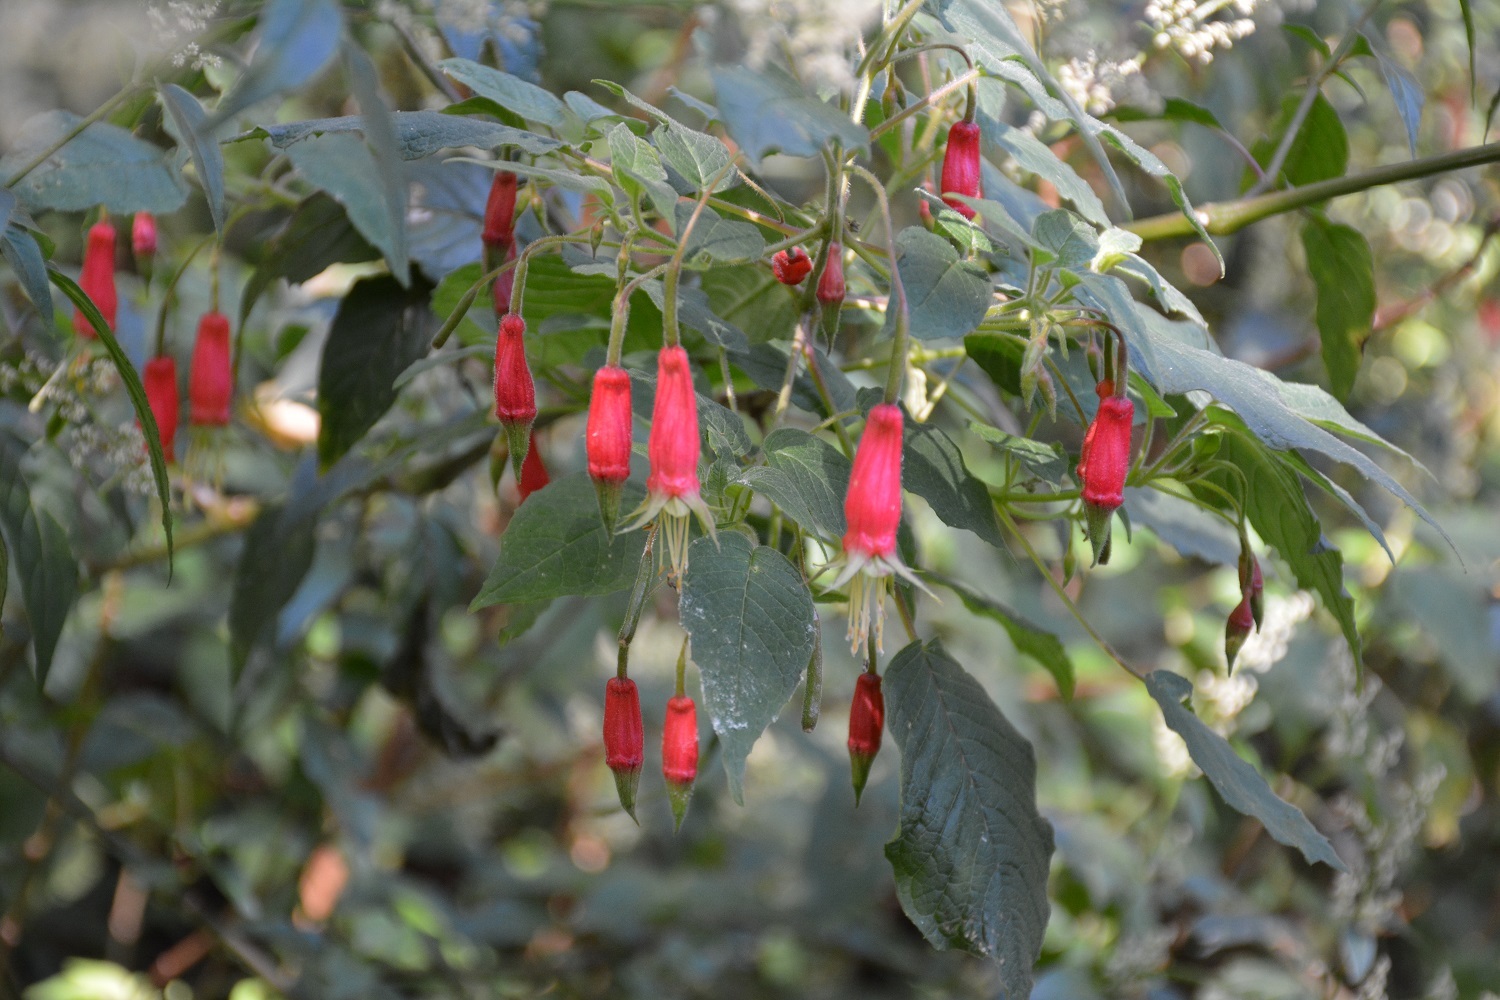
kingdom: Plantae
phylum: Tracheophyta
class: Magnoliopsida
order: Myrtales
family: Onagraceae
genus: Fuchsia
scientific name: Fuchsia splendens
